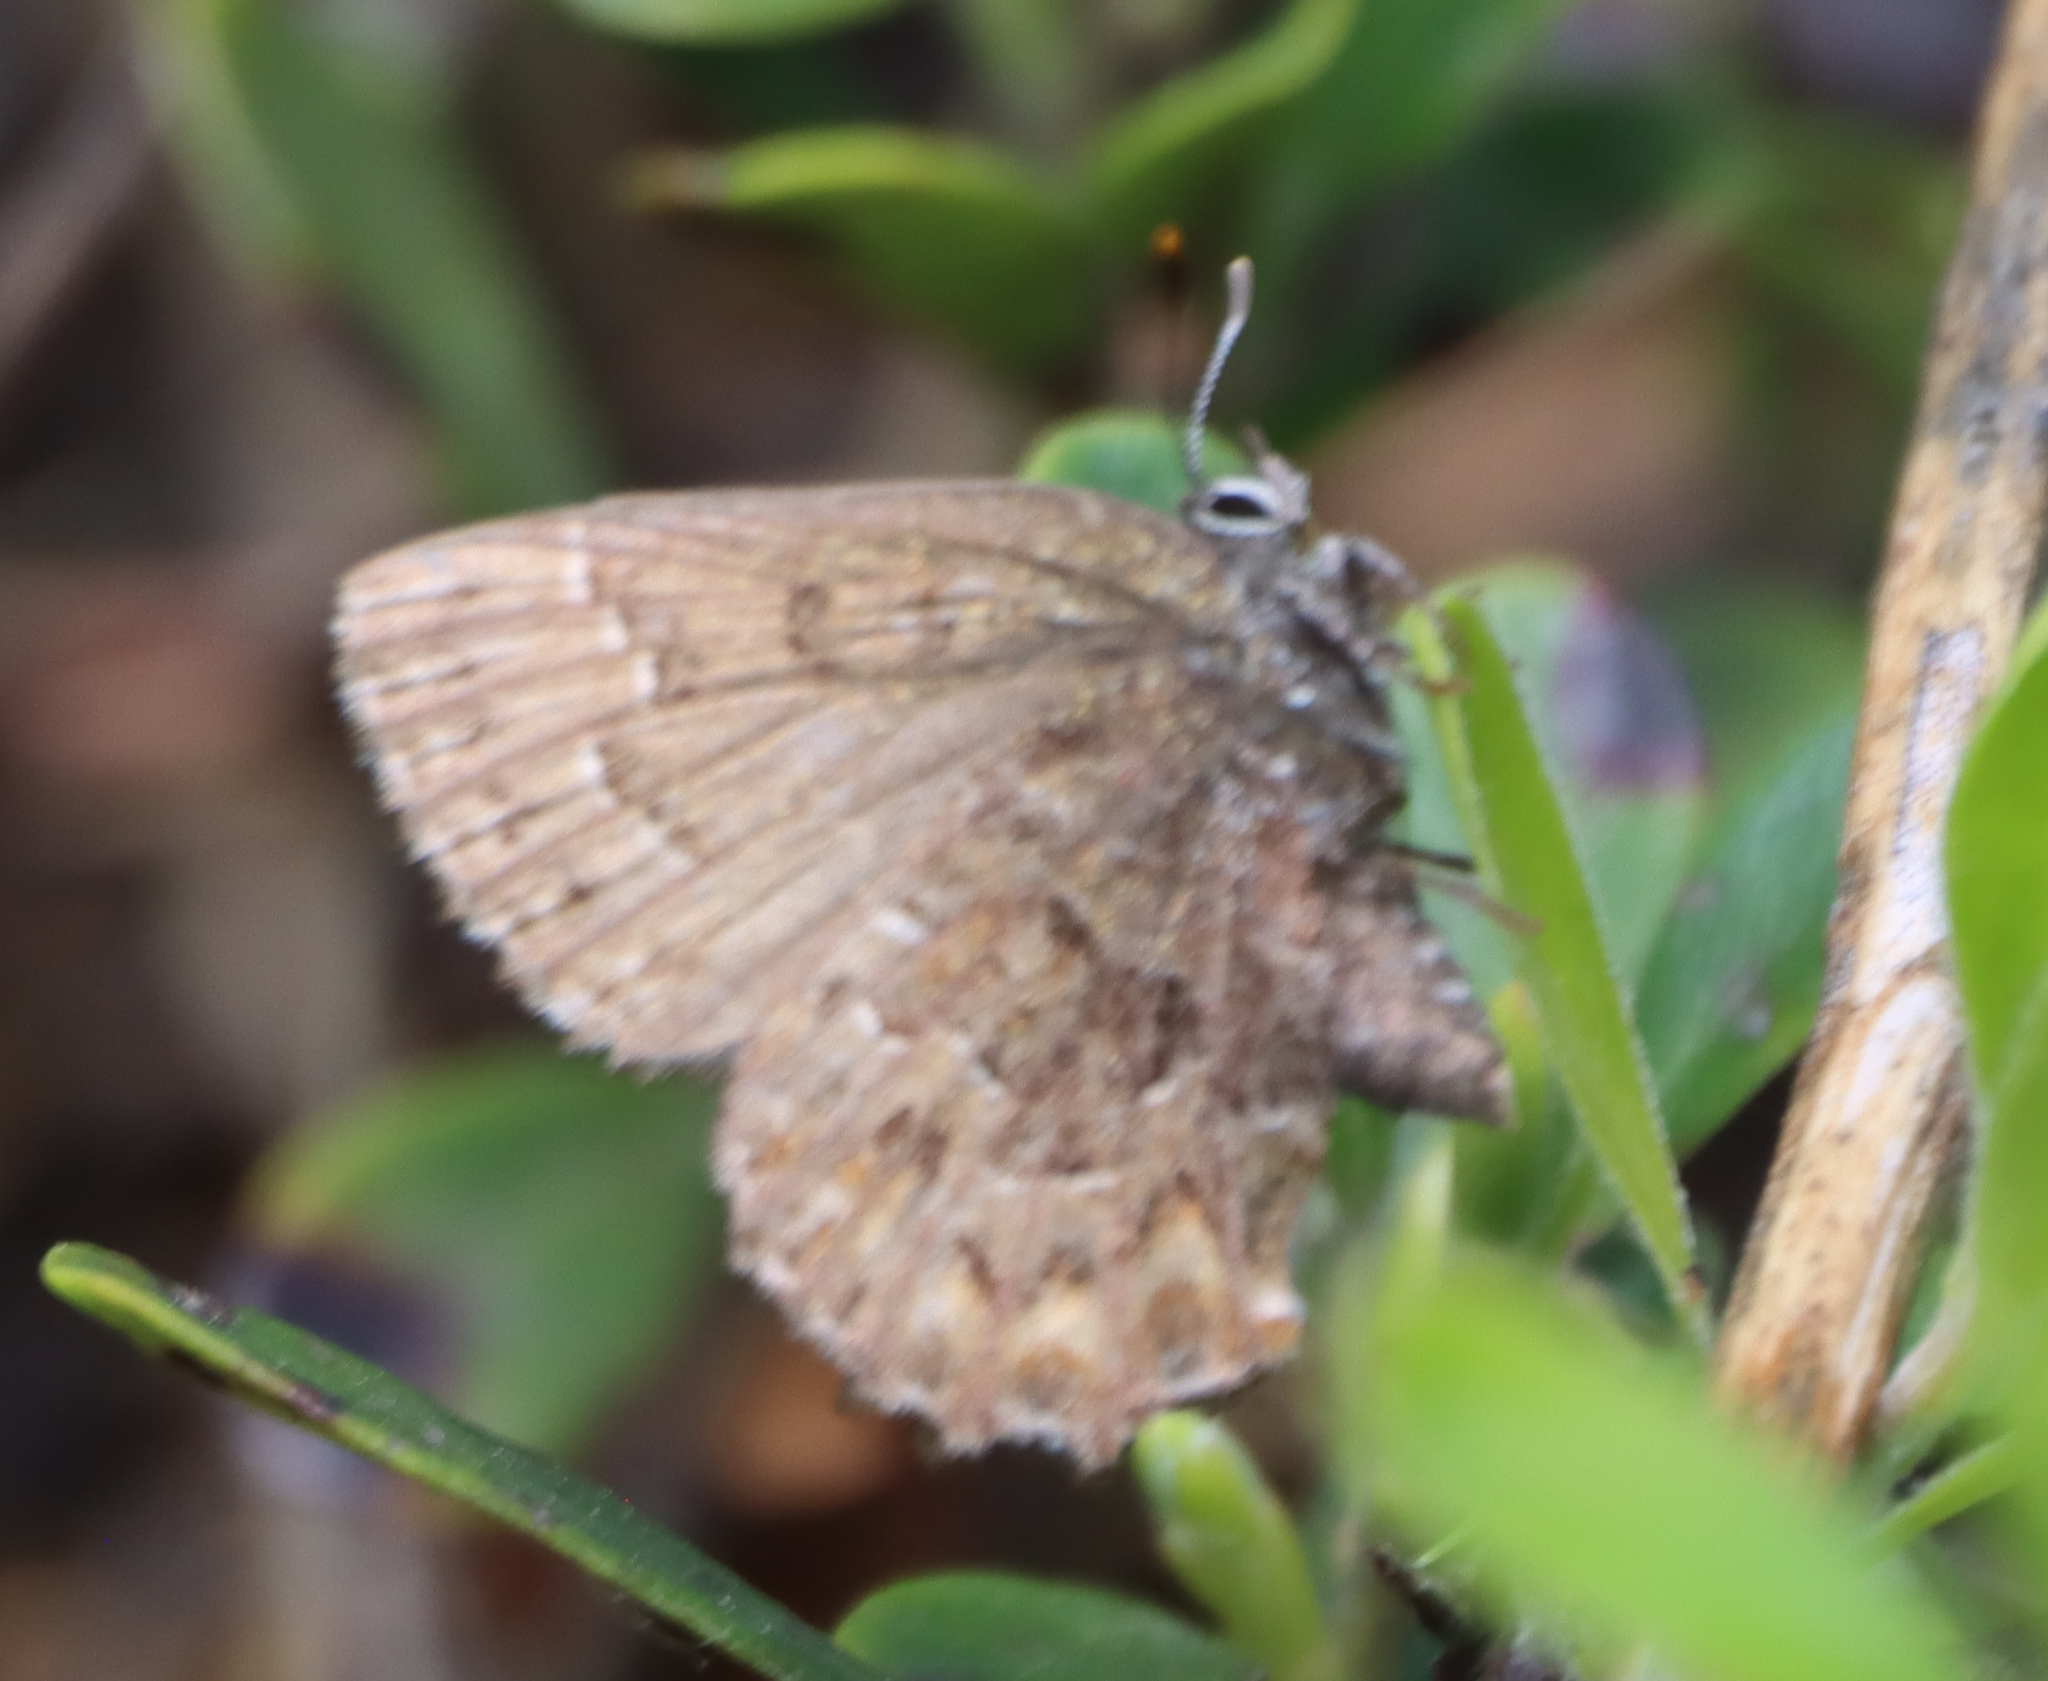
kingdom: Animalia
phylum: Arthropoda
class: Insecta
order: Lepidoptera
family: Lycaenidae
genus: Incisalia
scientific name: Incisalia niphon
